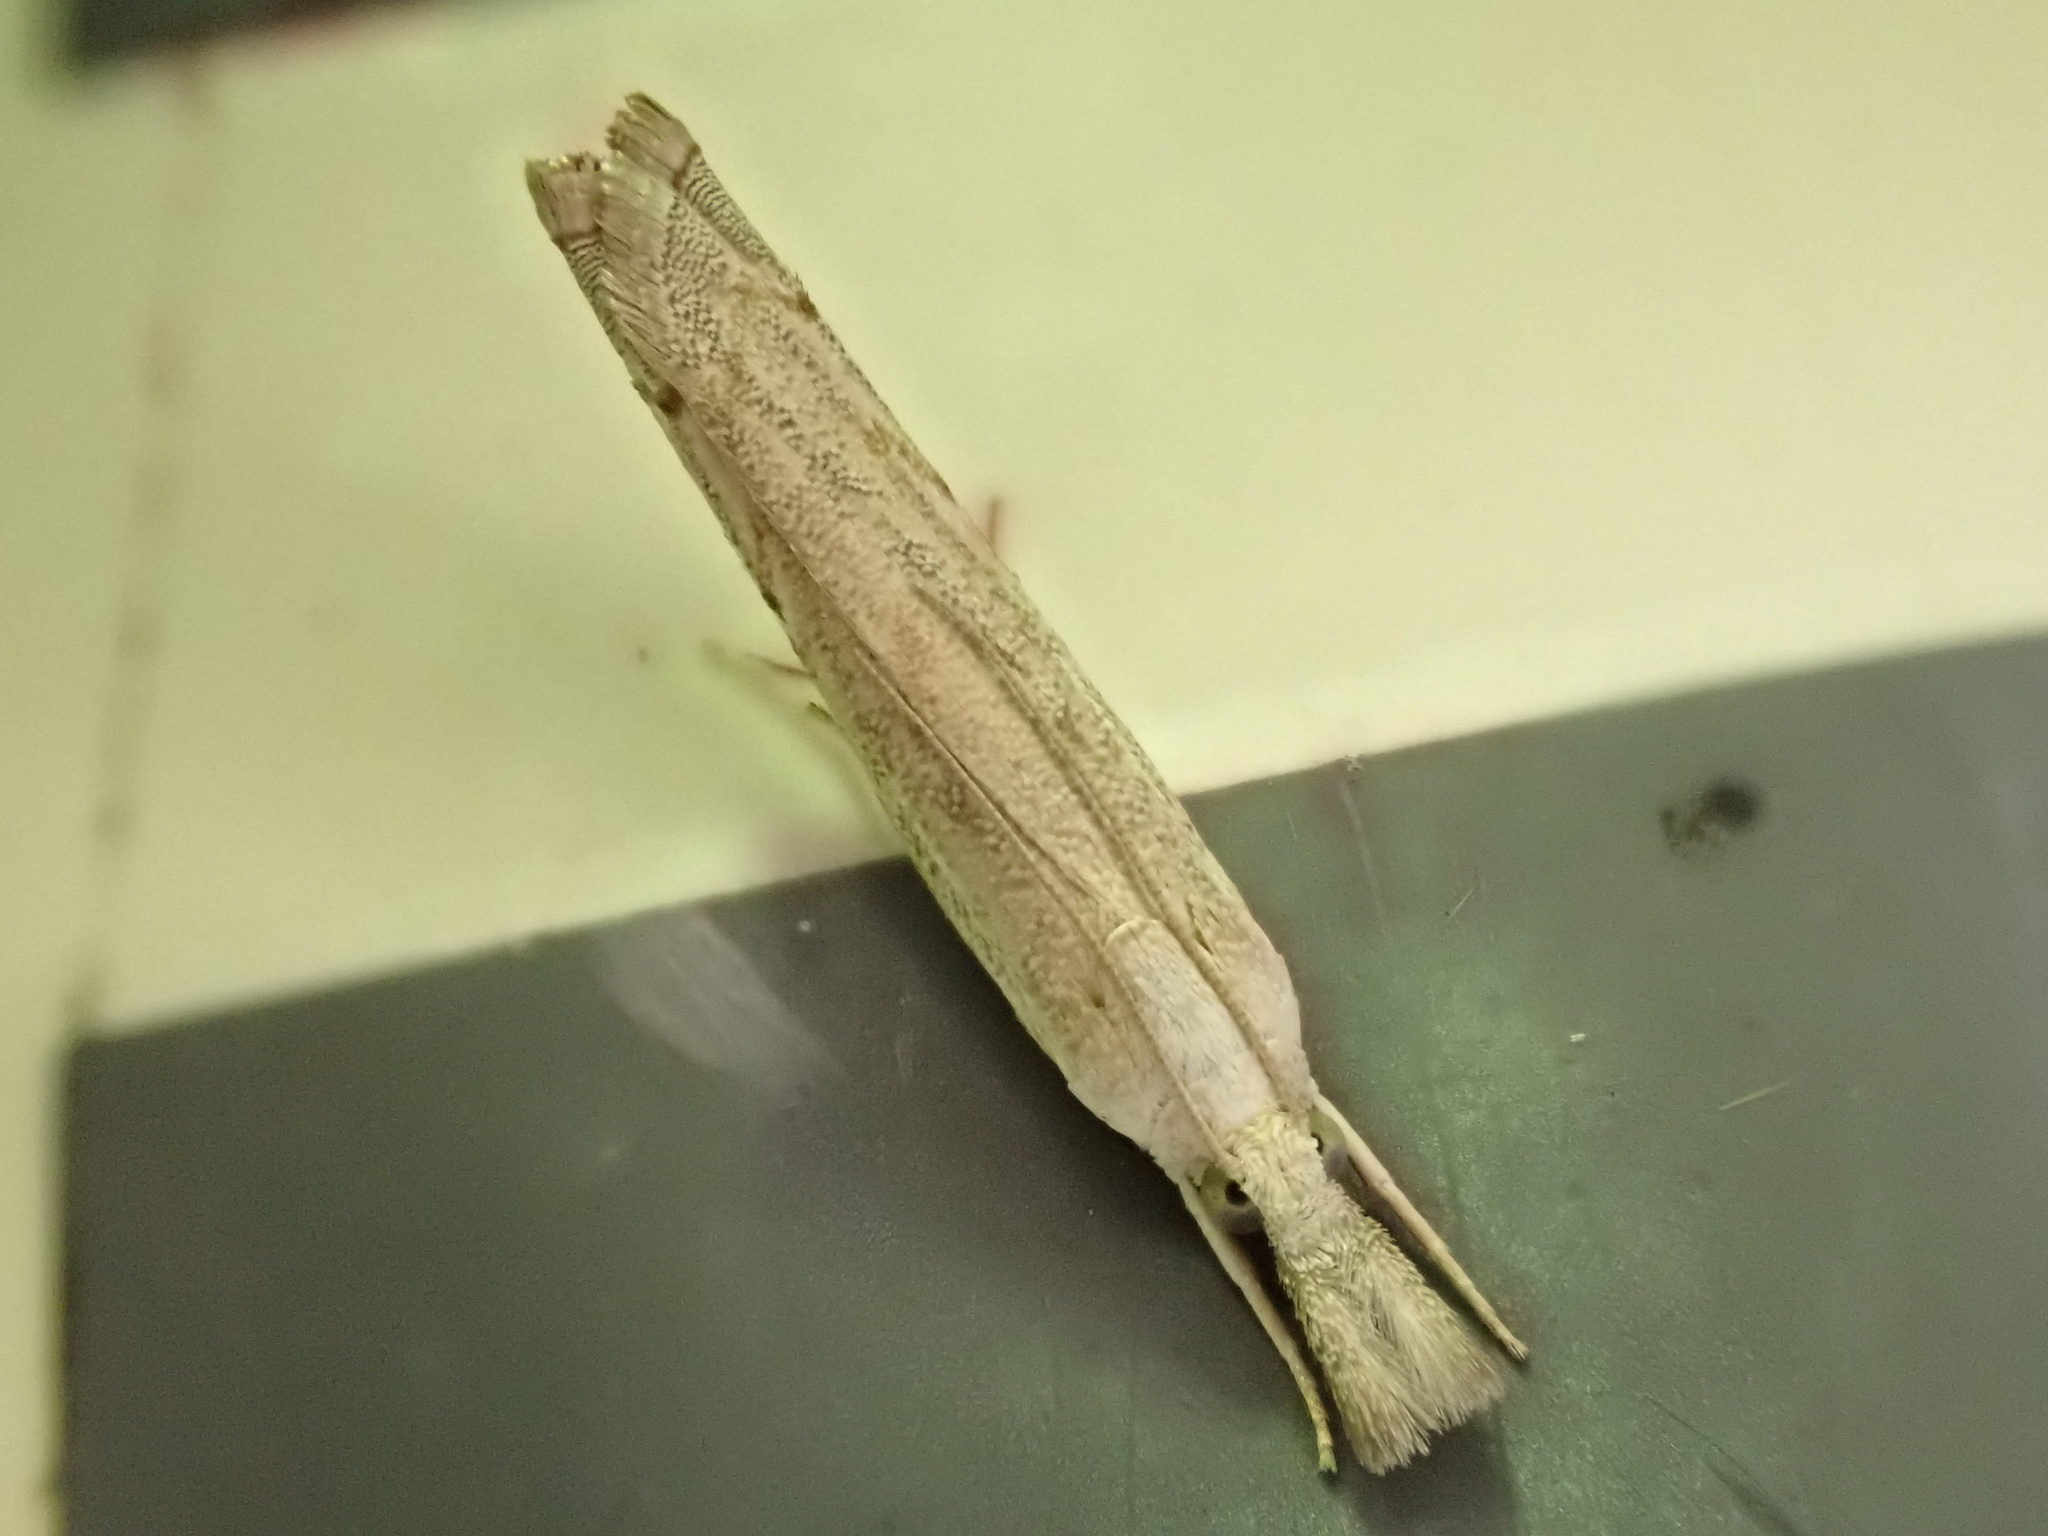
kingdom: Animalia
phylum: Arthropoda
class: Insecta
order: Lepidoptera
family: Crambidae
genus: Culladia
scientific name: Culladia cuneiferellus
